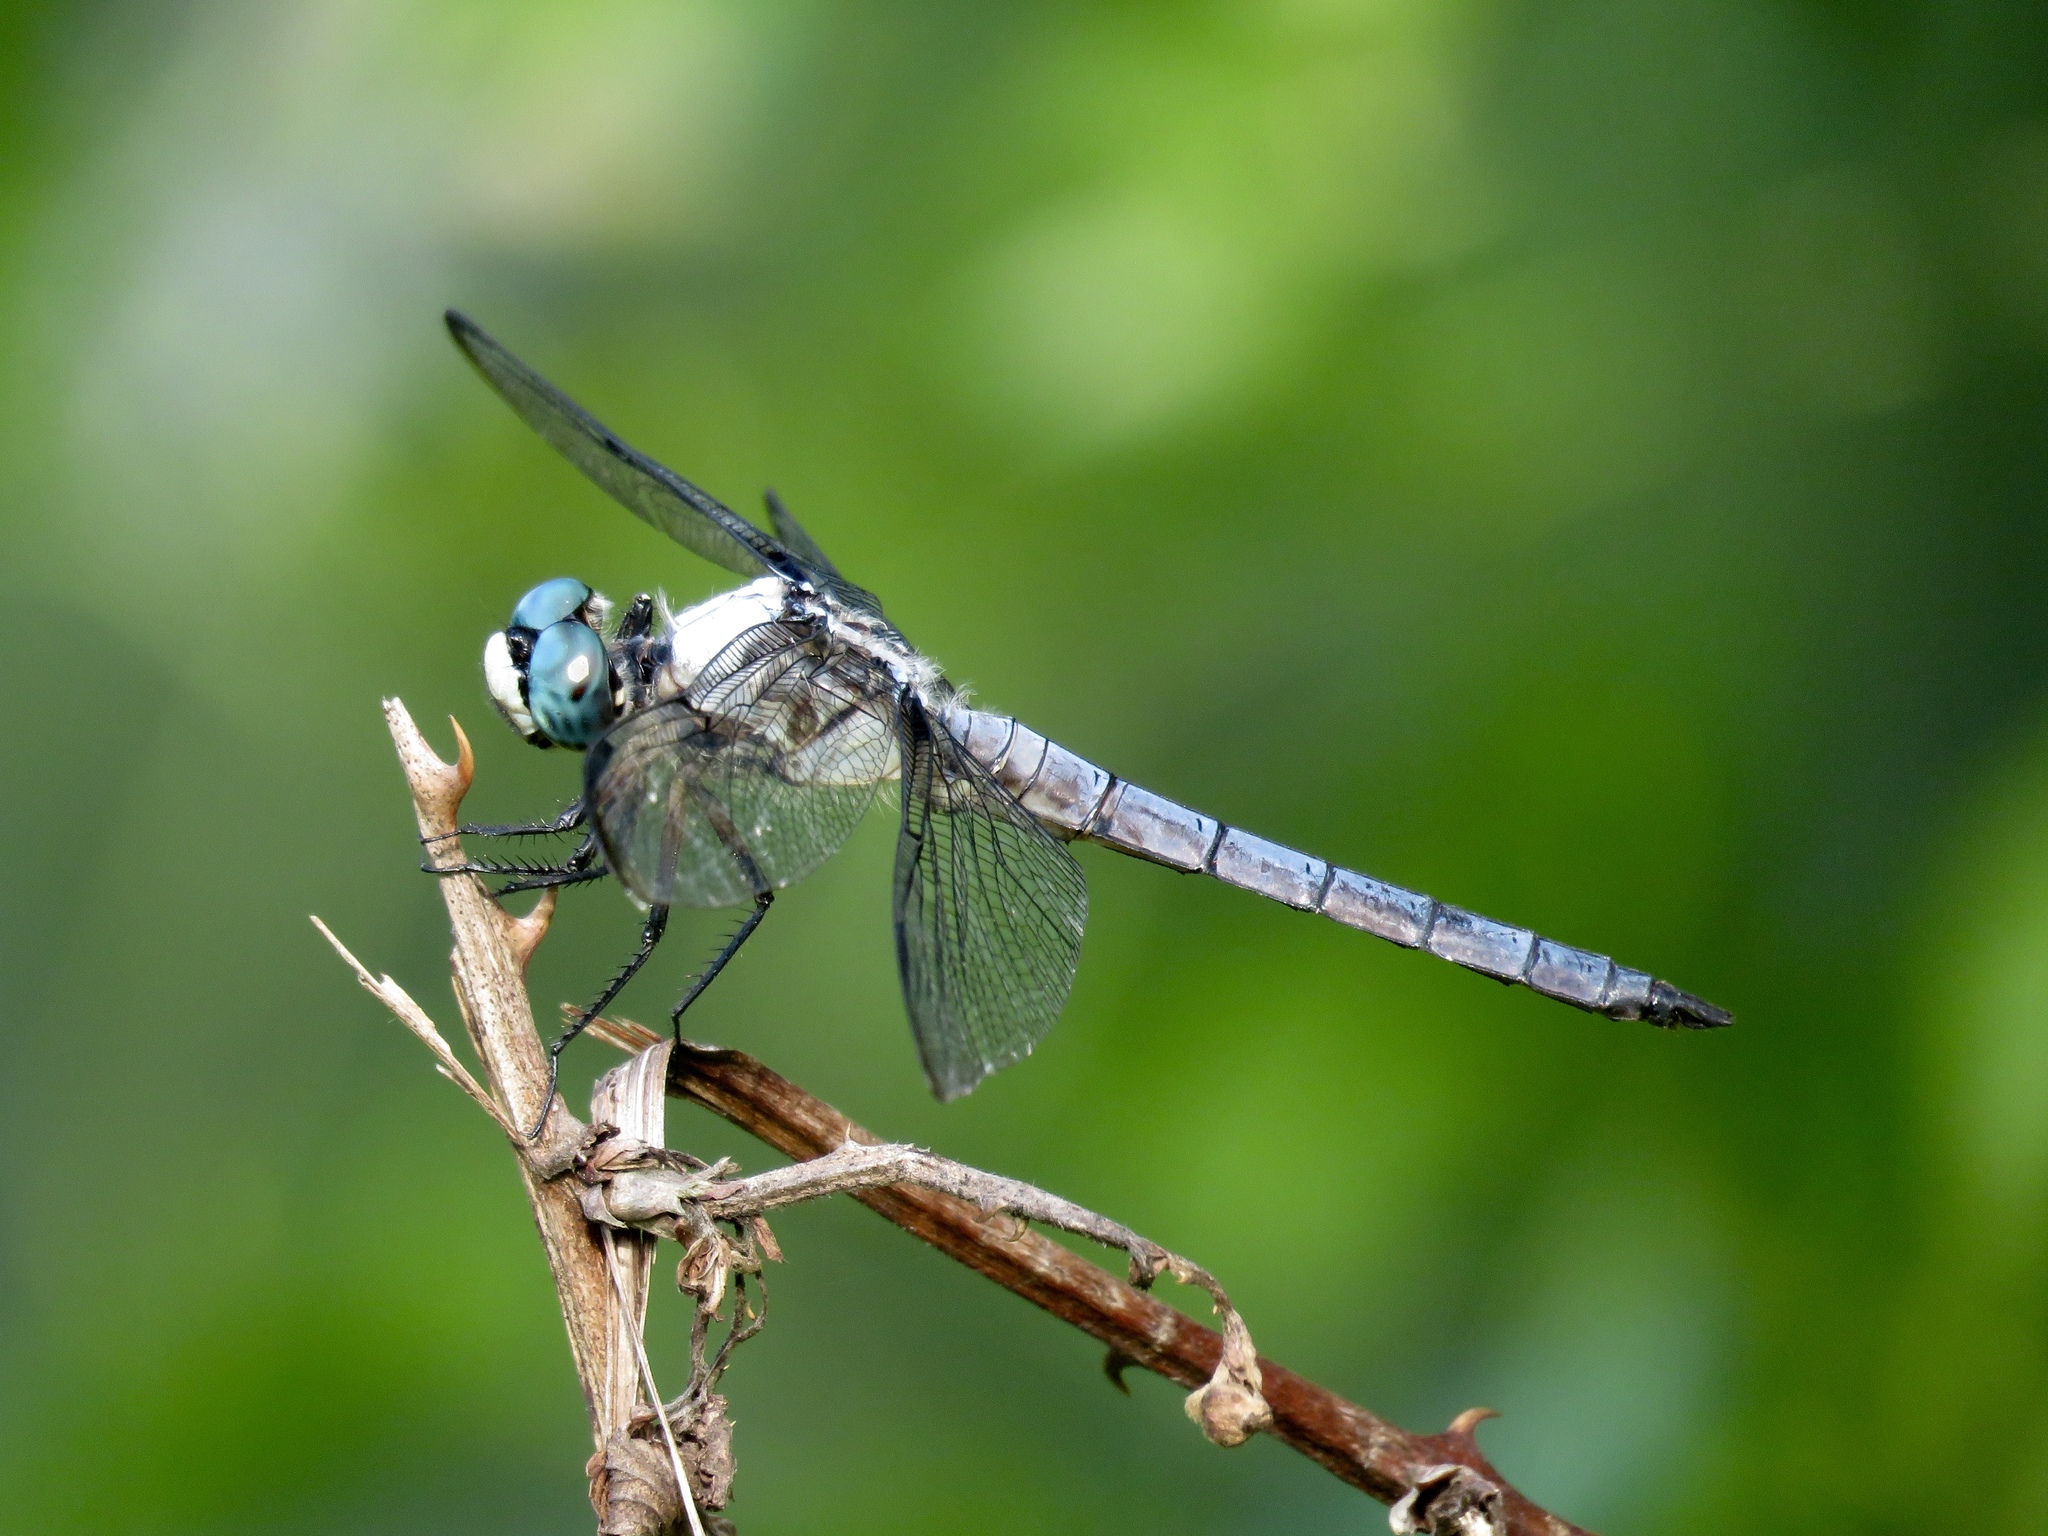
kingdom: Animalia
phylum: Arthropoda
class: Insecta
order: Odonata
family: Libellulidae
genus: Libellula
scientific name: Libellula vibrans
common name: Great blue skimmer
